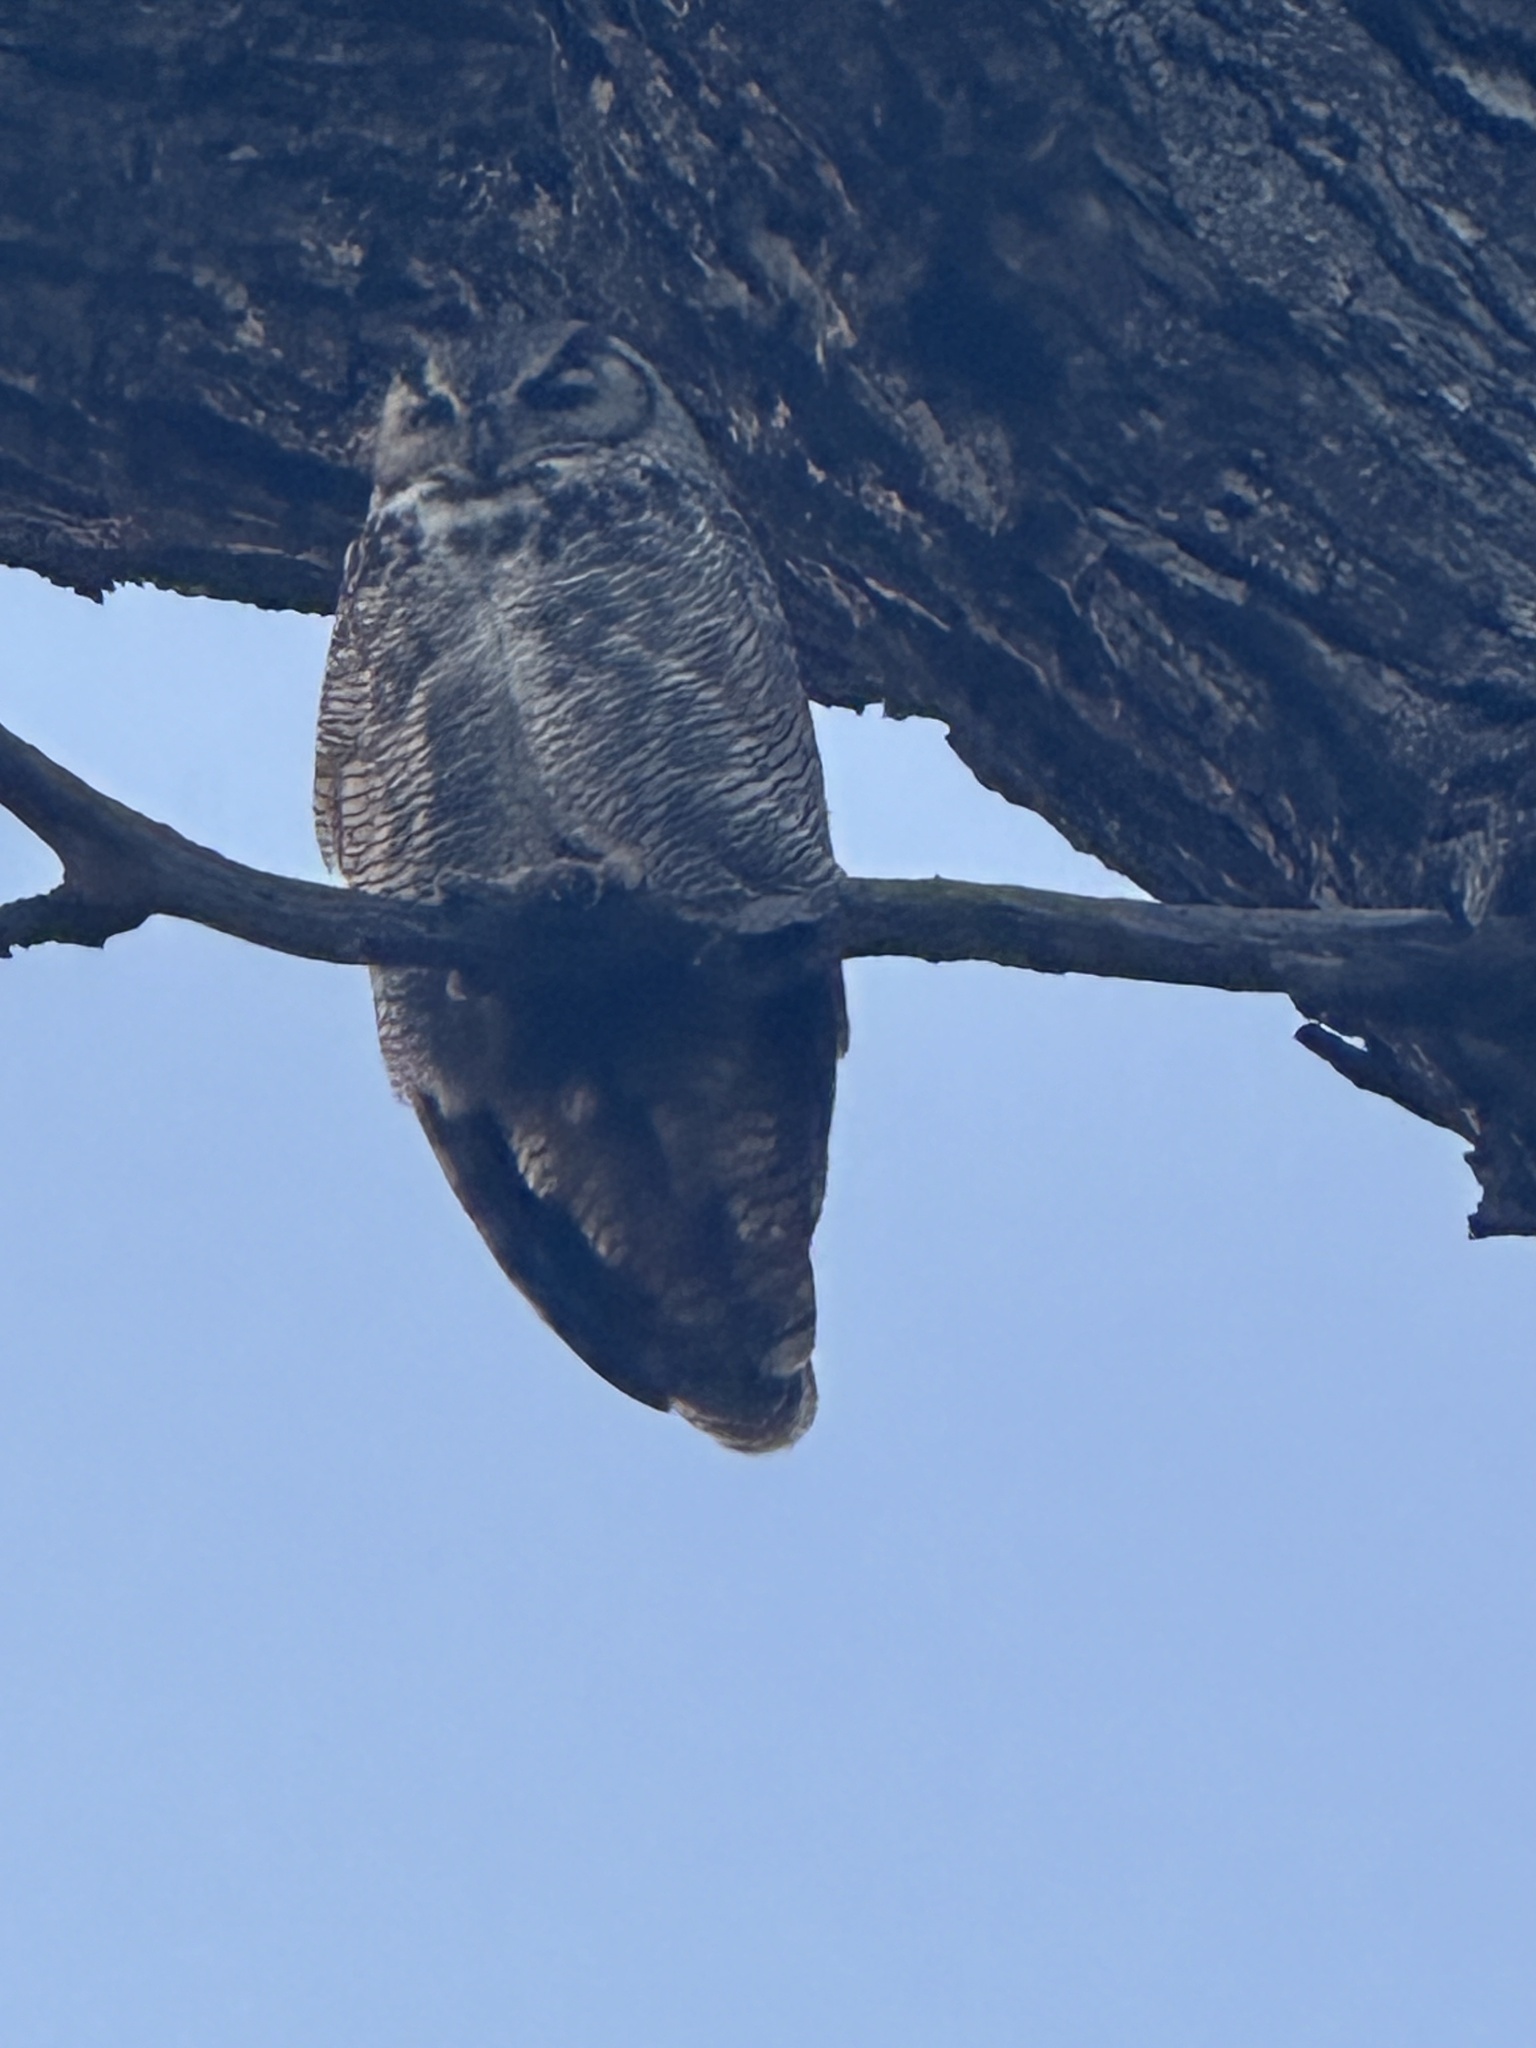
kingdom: Animalia
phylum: Chordata
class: Aves
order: Strigiformes
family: Strigidae
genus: Bubo
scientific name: Bubo virginianus
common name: Great horned owl
